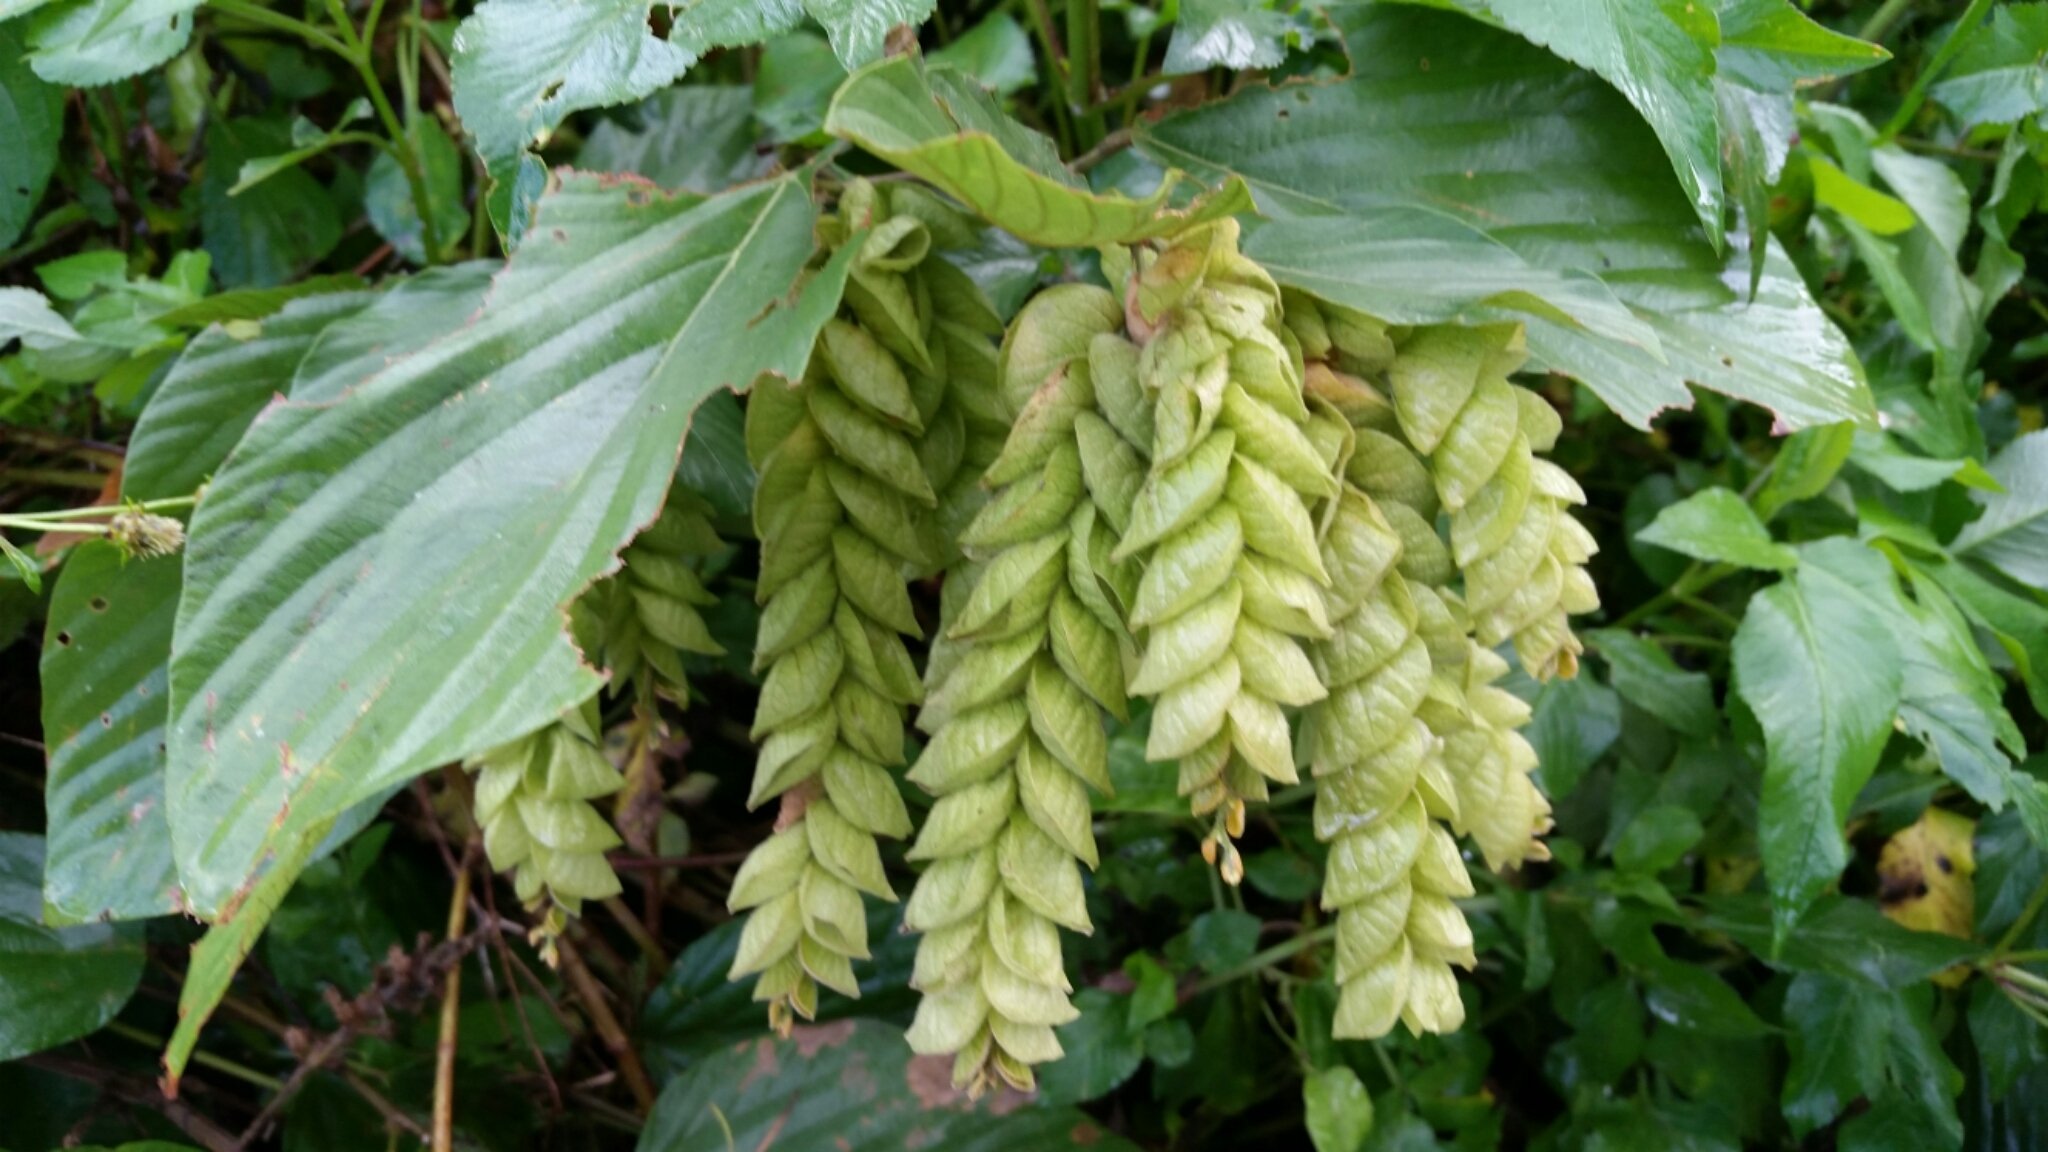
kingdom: Plantae
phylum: Tracheophyta
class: Magnoliopsida
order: Fabales
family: Fabaceae
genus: Flemingia
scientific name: Flemingia strobilifera
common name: Wild hops
